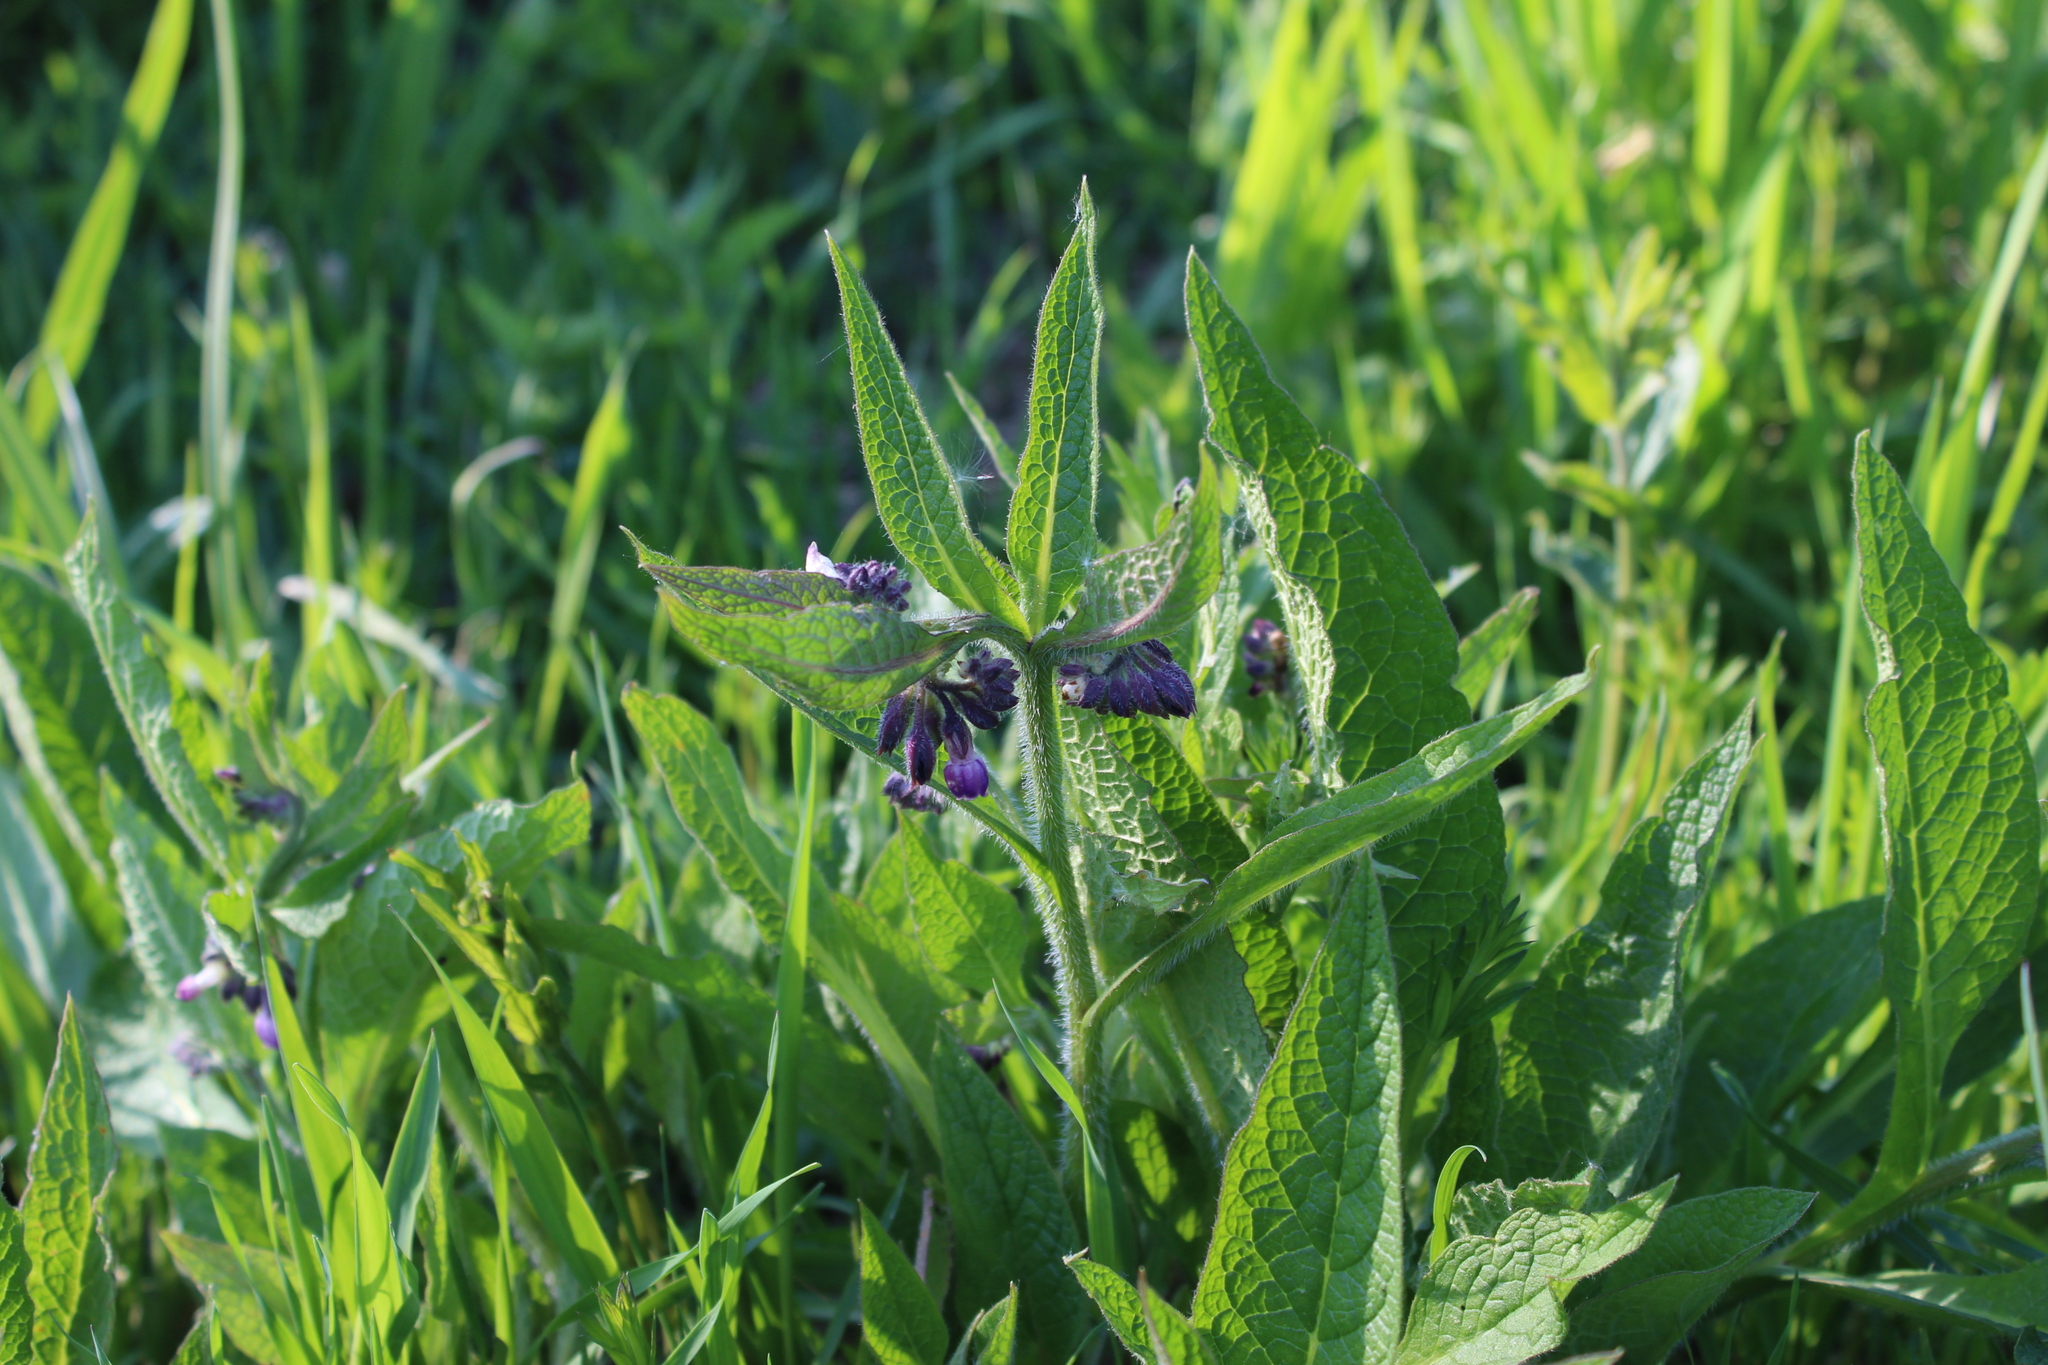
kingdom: Plantae
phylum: Tracheophyta
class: Magnoliopsida
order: Boraginales
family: Boraginaceae
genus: Symphytum
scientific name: Symphytum officinale
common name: Common comfrey
